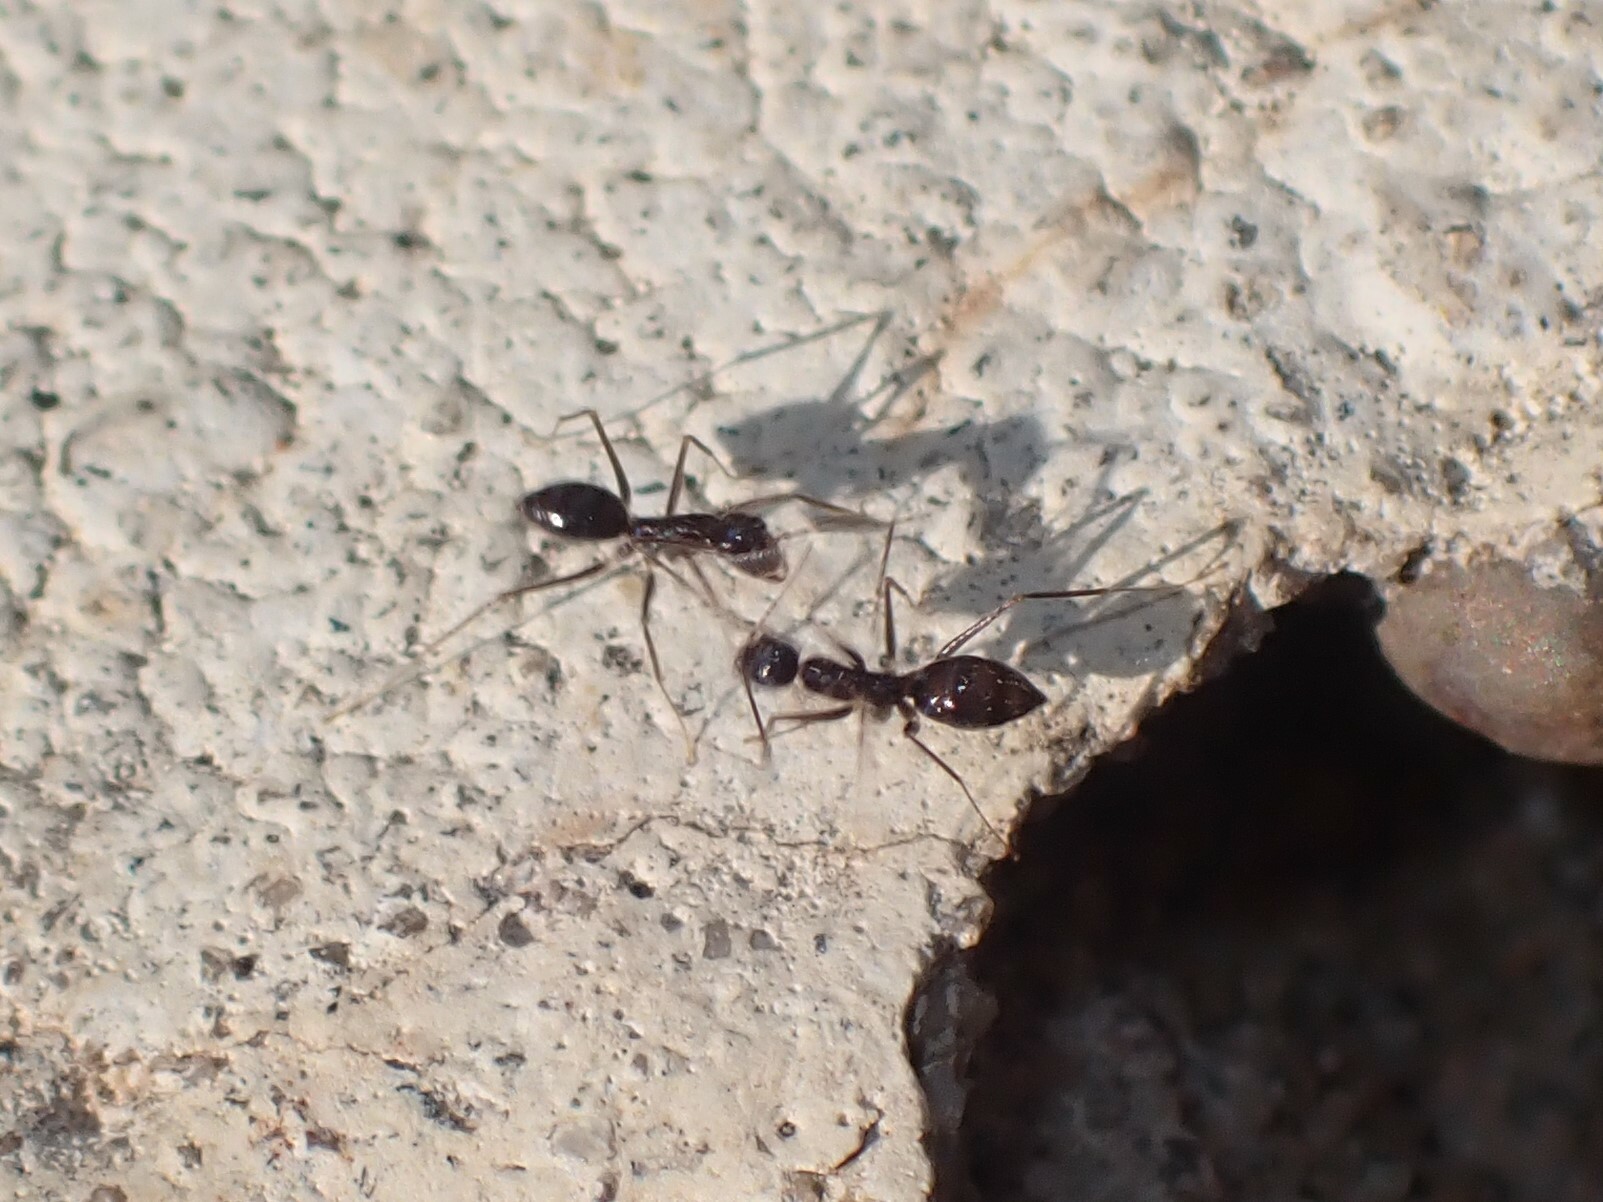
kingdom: Animalia
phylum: Arthropoda
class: Insecta
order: Hymenoptera
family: Formicidae
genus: Paratrechina
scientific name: Paratrechina longicornis
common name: Longhorned crazy ant
